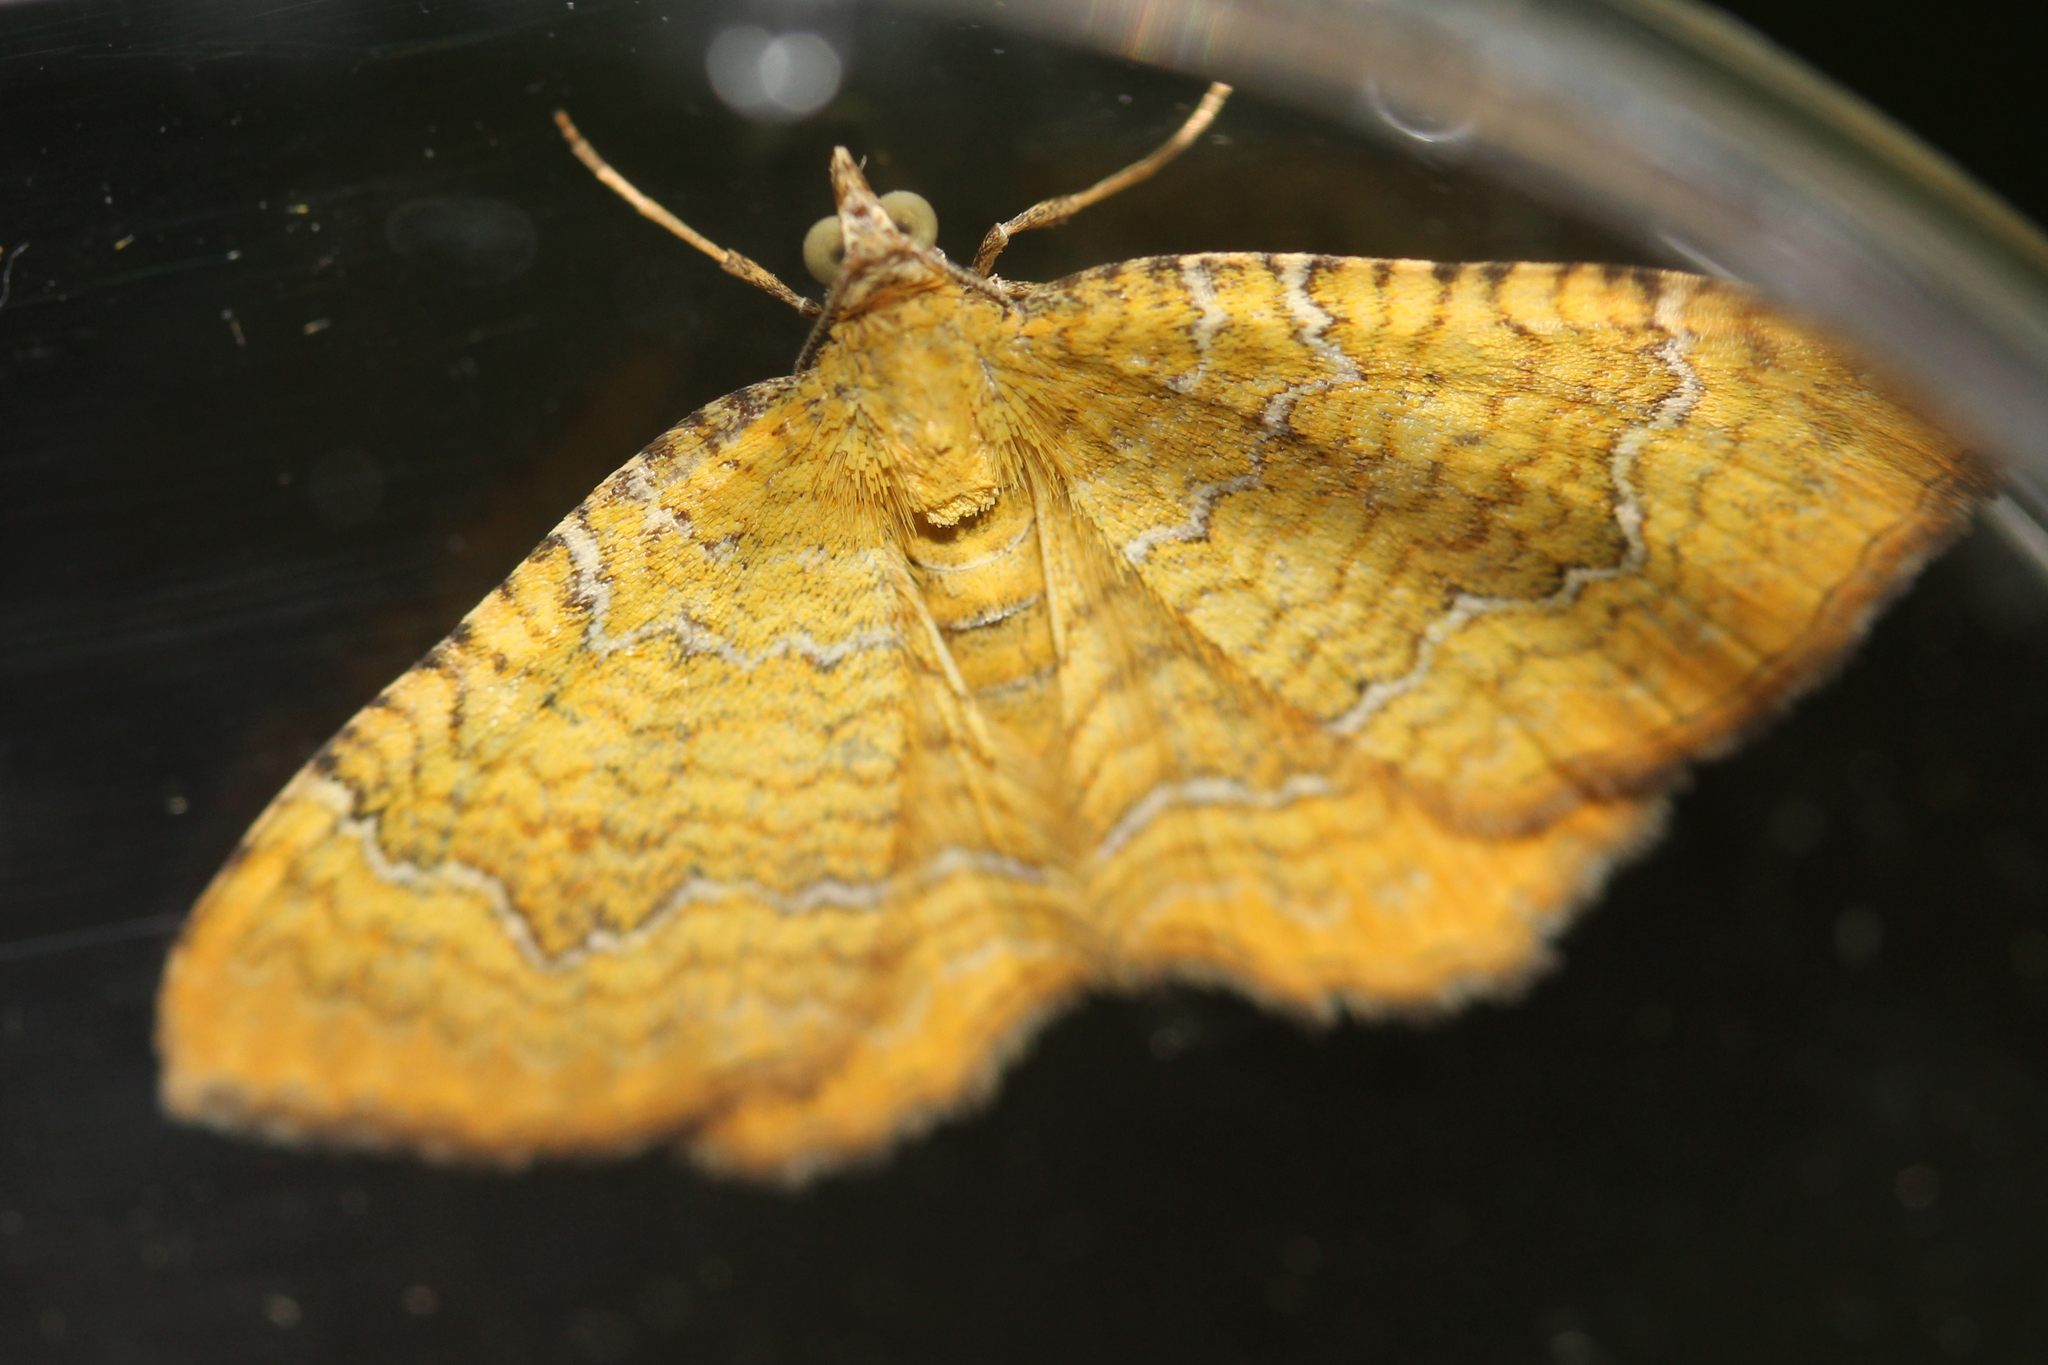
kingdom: Animalia
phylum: Arthropoda
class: Insecta
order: Lepidoptera
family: Geometridae
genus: Camptogramma
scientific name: Camptogramma bilineata
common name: Yellow shell
